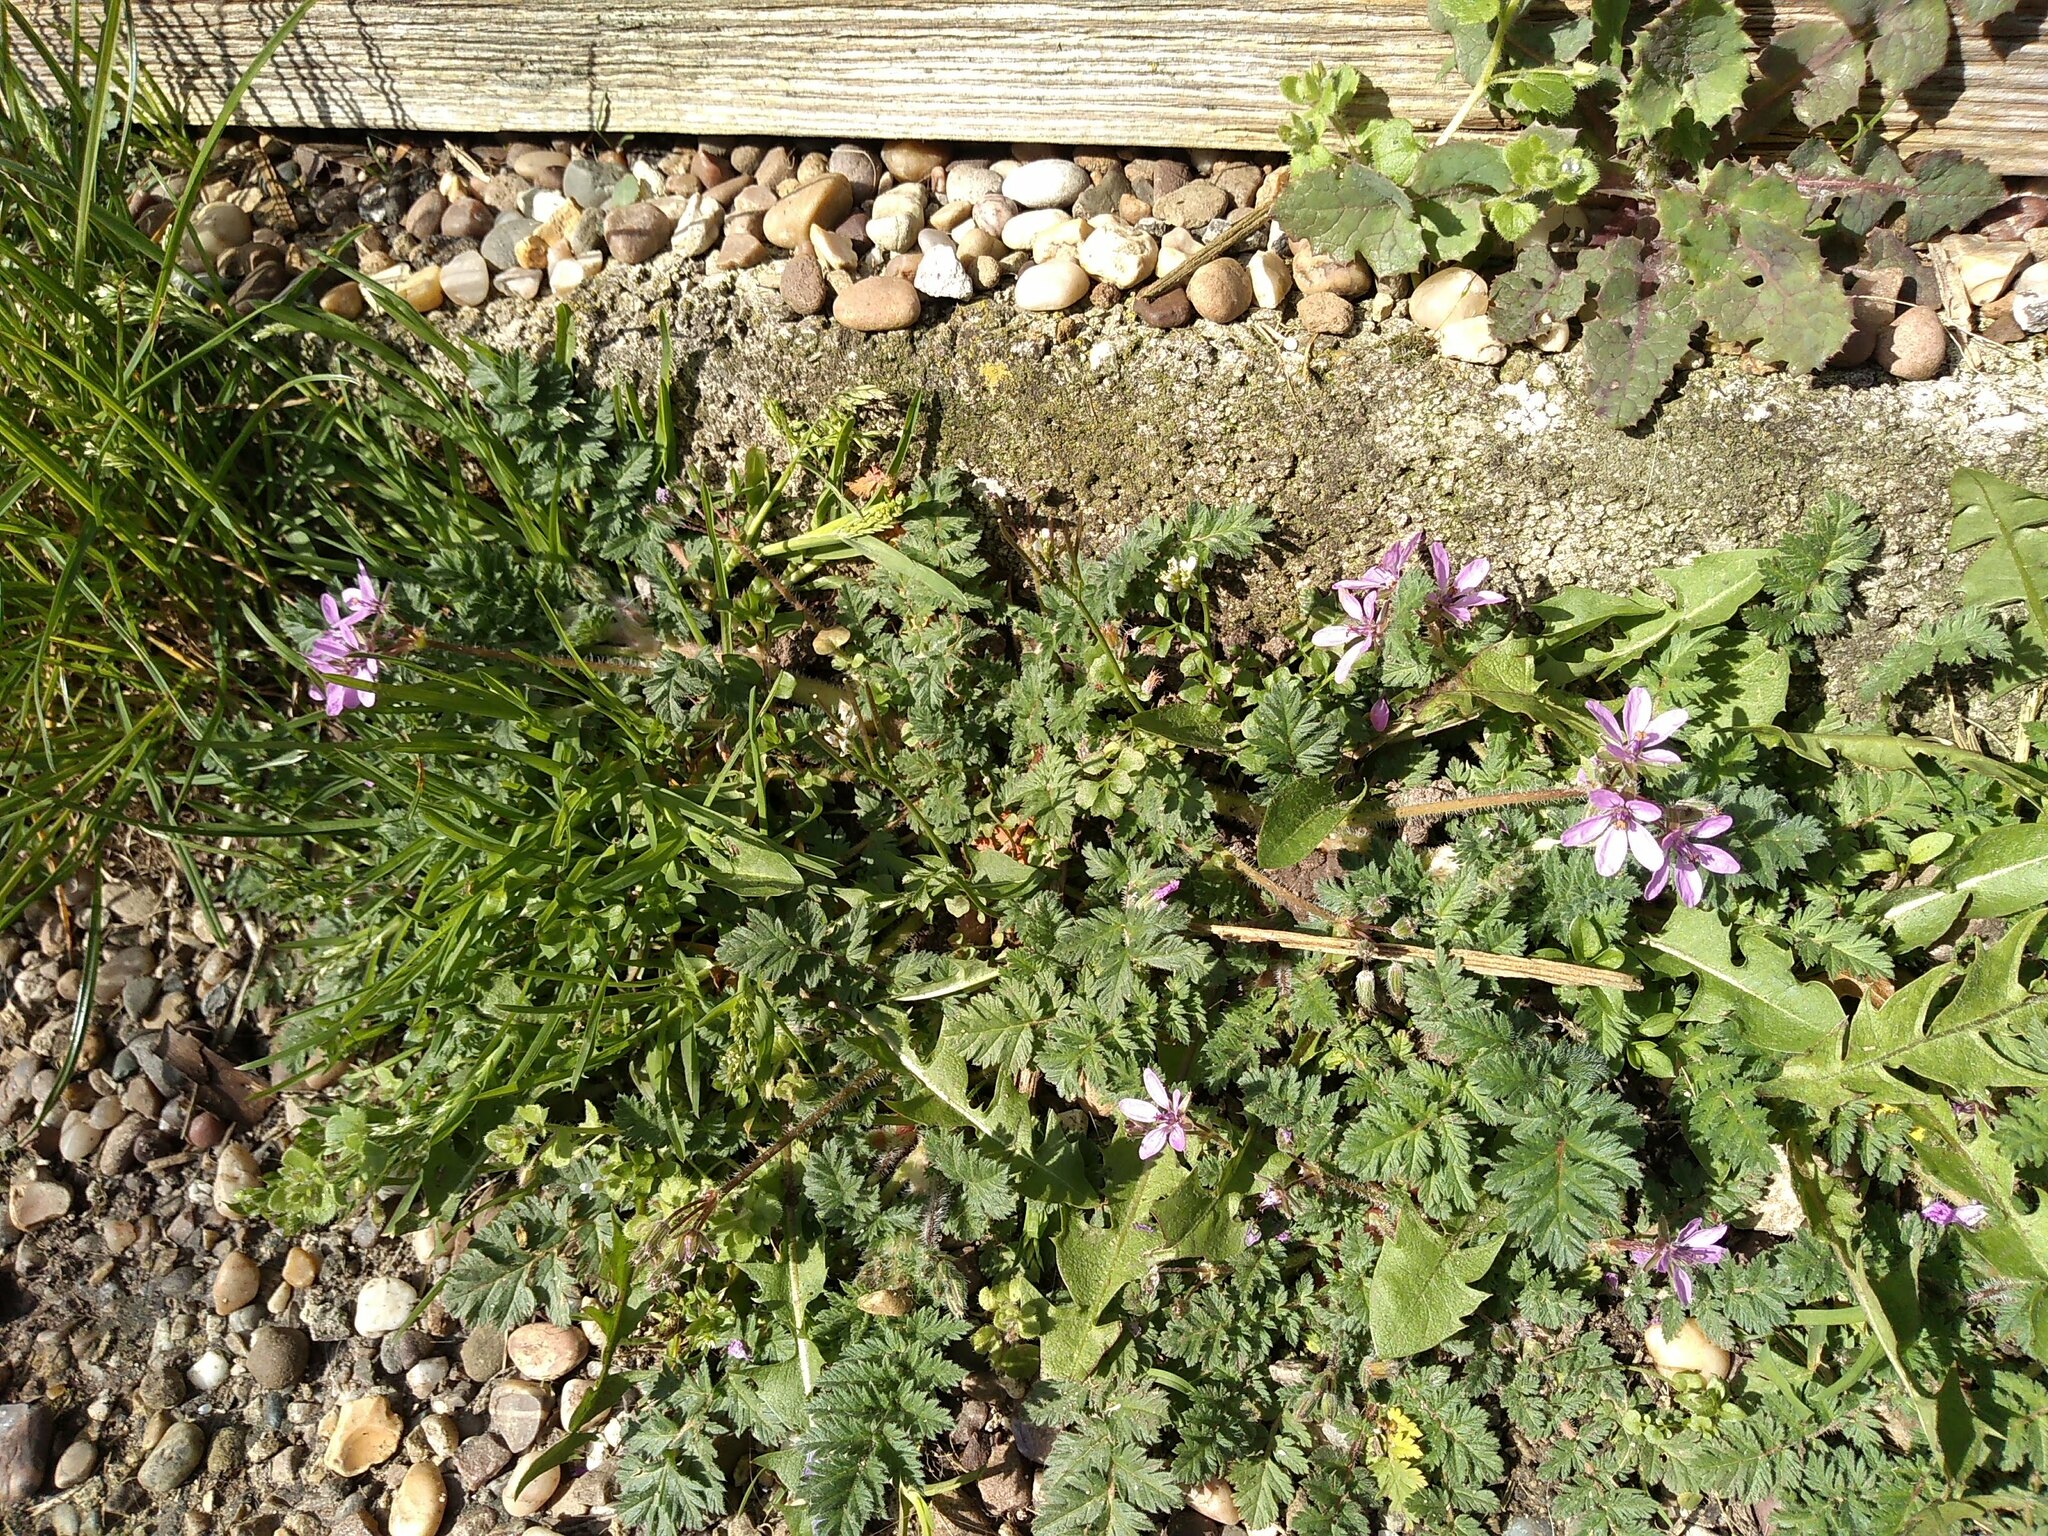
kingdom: Plantae
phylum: Tracheophyta
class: Magnoliopsida
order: Geraniales
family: Geraniaceae
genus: Erodium
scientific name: Erodium cicutarium
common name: Common stork's-bill
